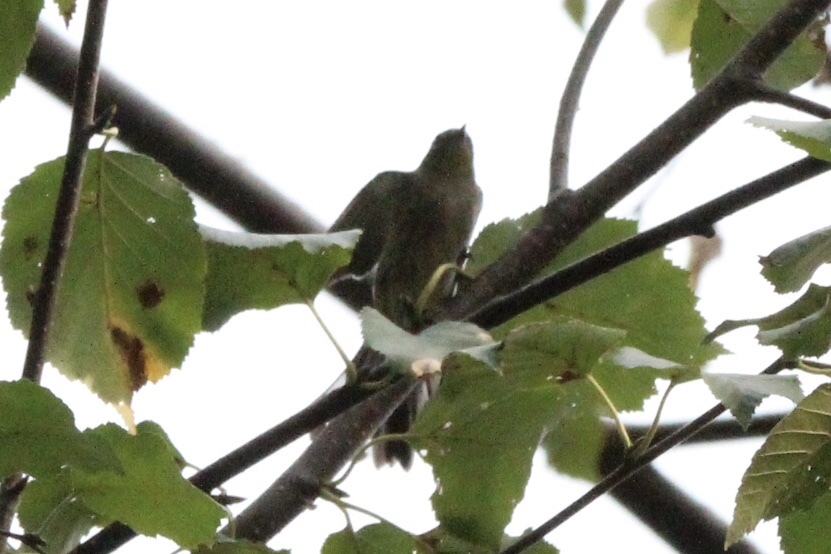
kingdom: Animalia
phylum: Chordata
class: Aves
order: Passeriformes
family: Parulidae
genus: Setophaga
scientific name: Setophaga coronata
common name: Myrtle warbler
